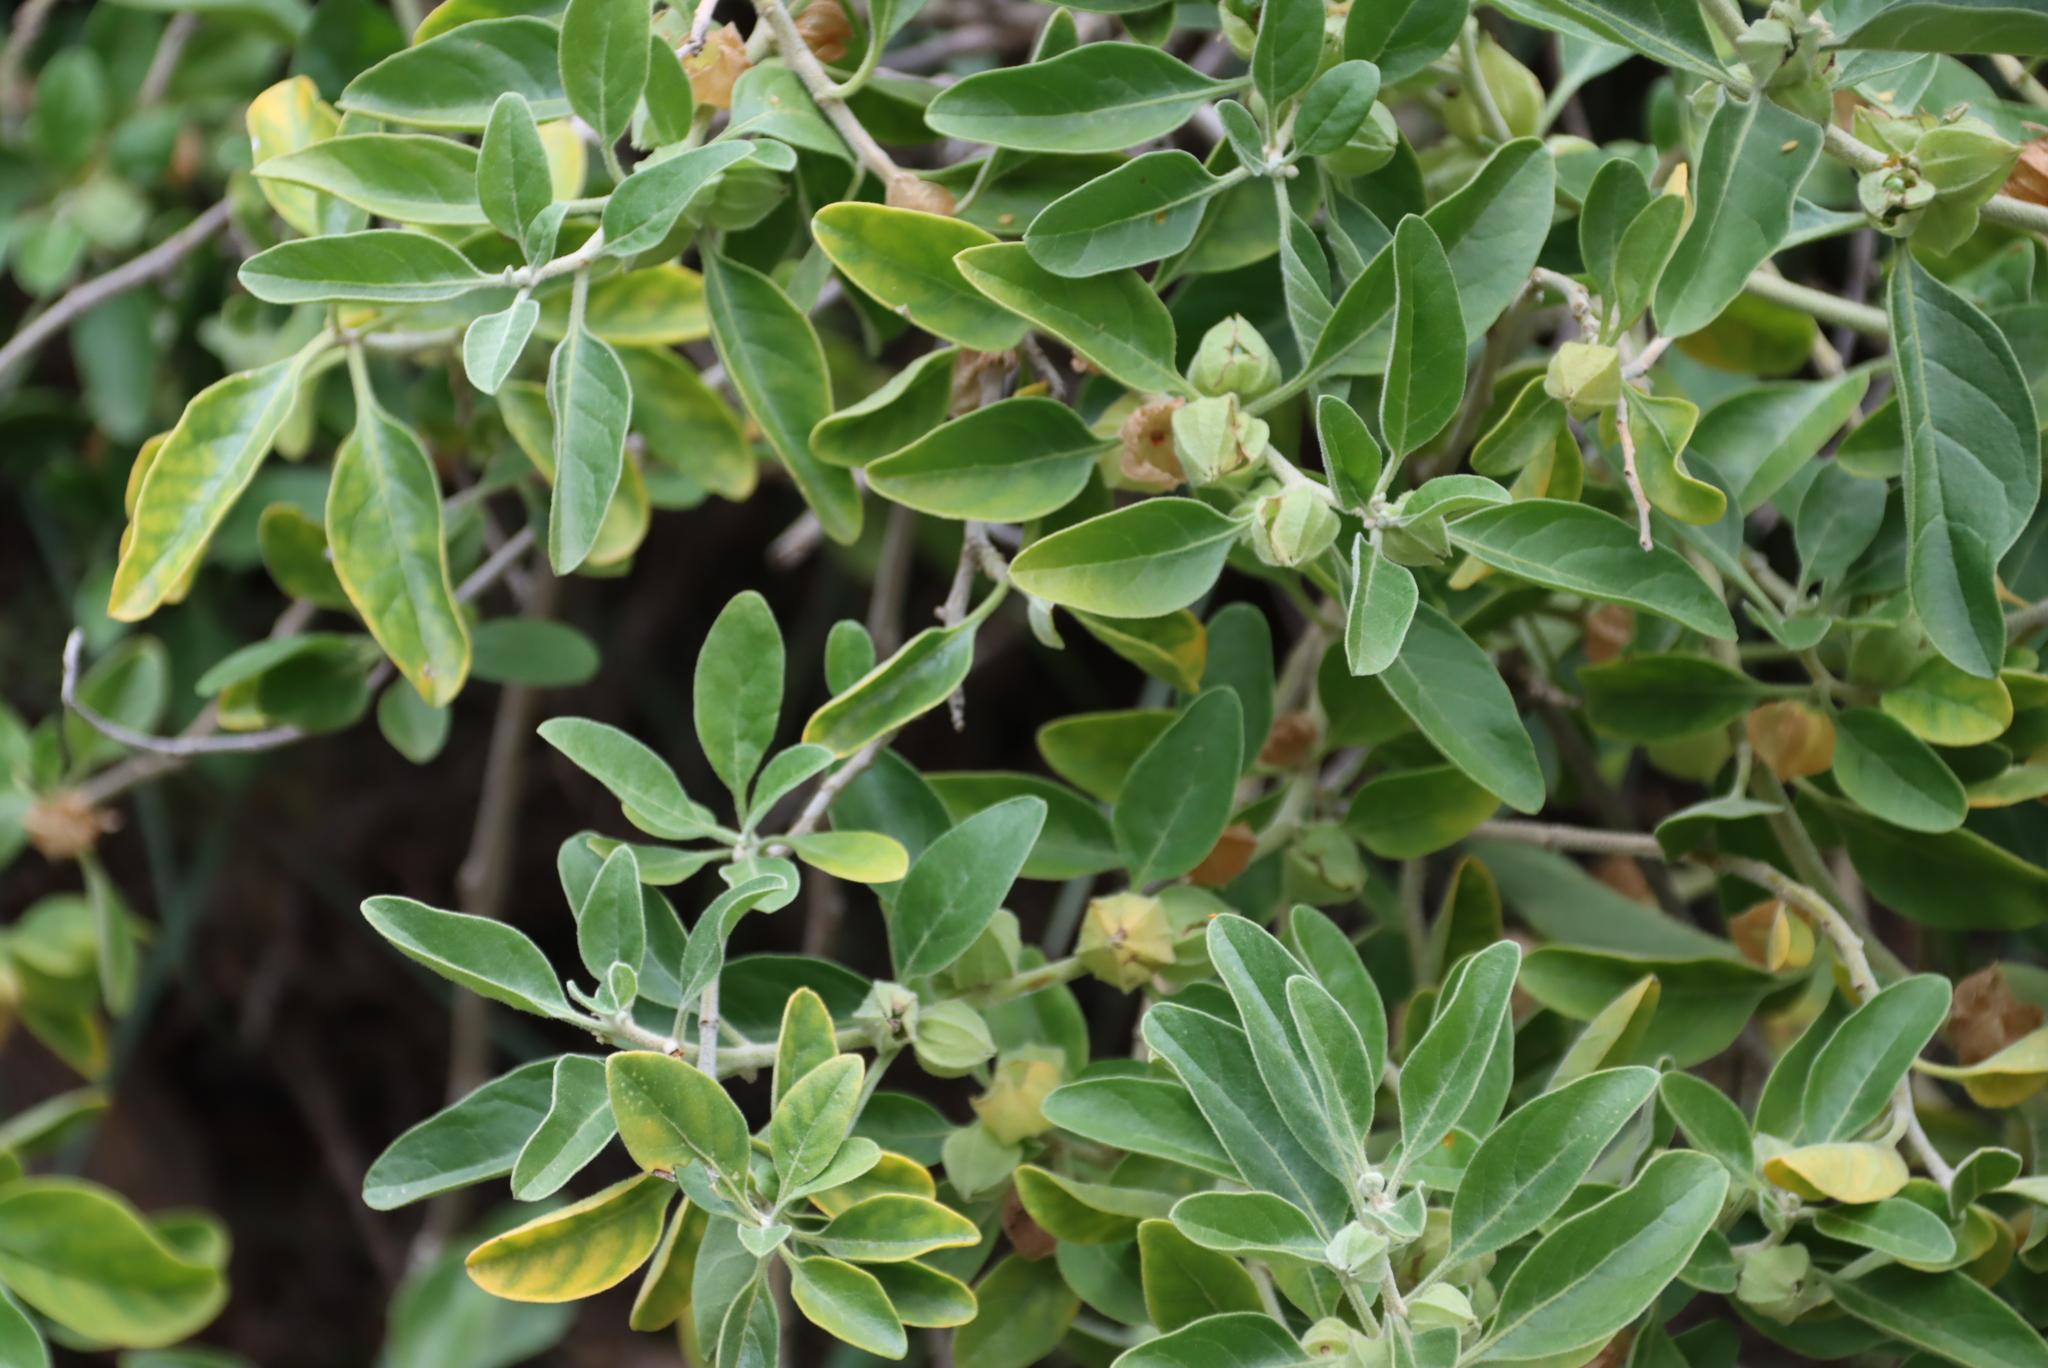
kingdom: Plantae
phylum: Tracheophyta
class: Magnoliopsida
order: Solanales
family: Solanaceae
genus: Withania
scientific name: Withania somnifera
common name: Winter-cherry
